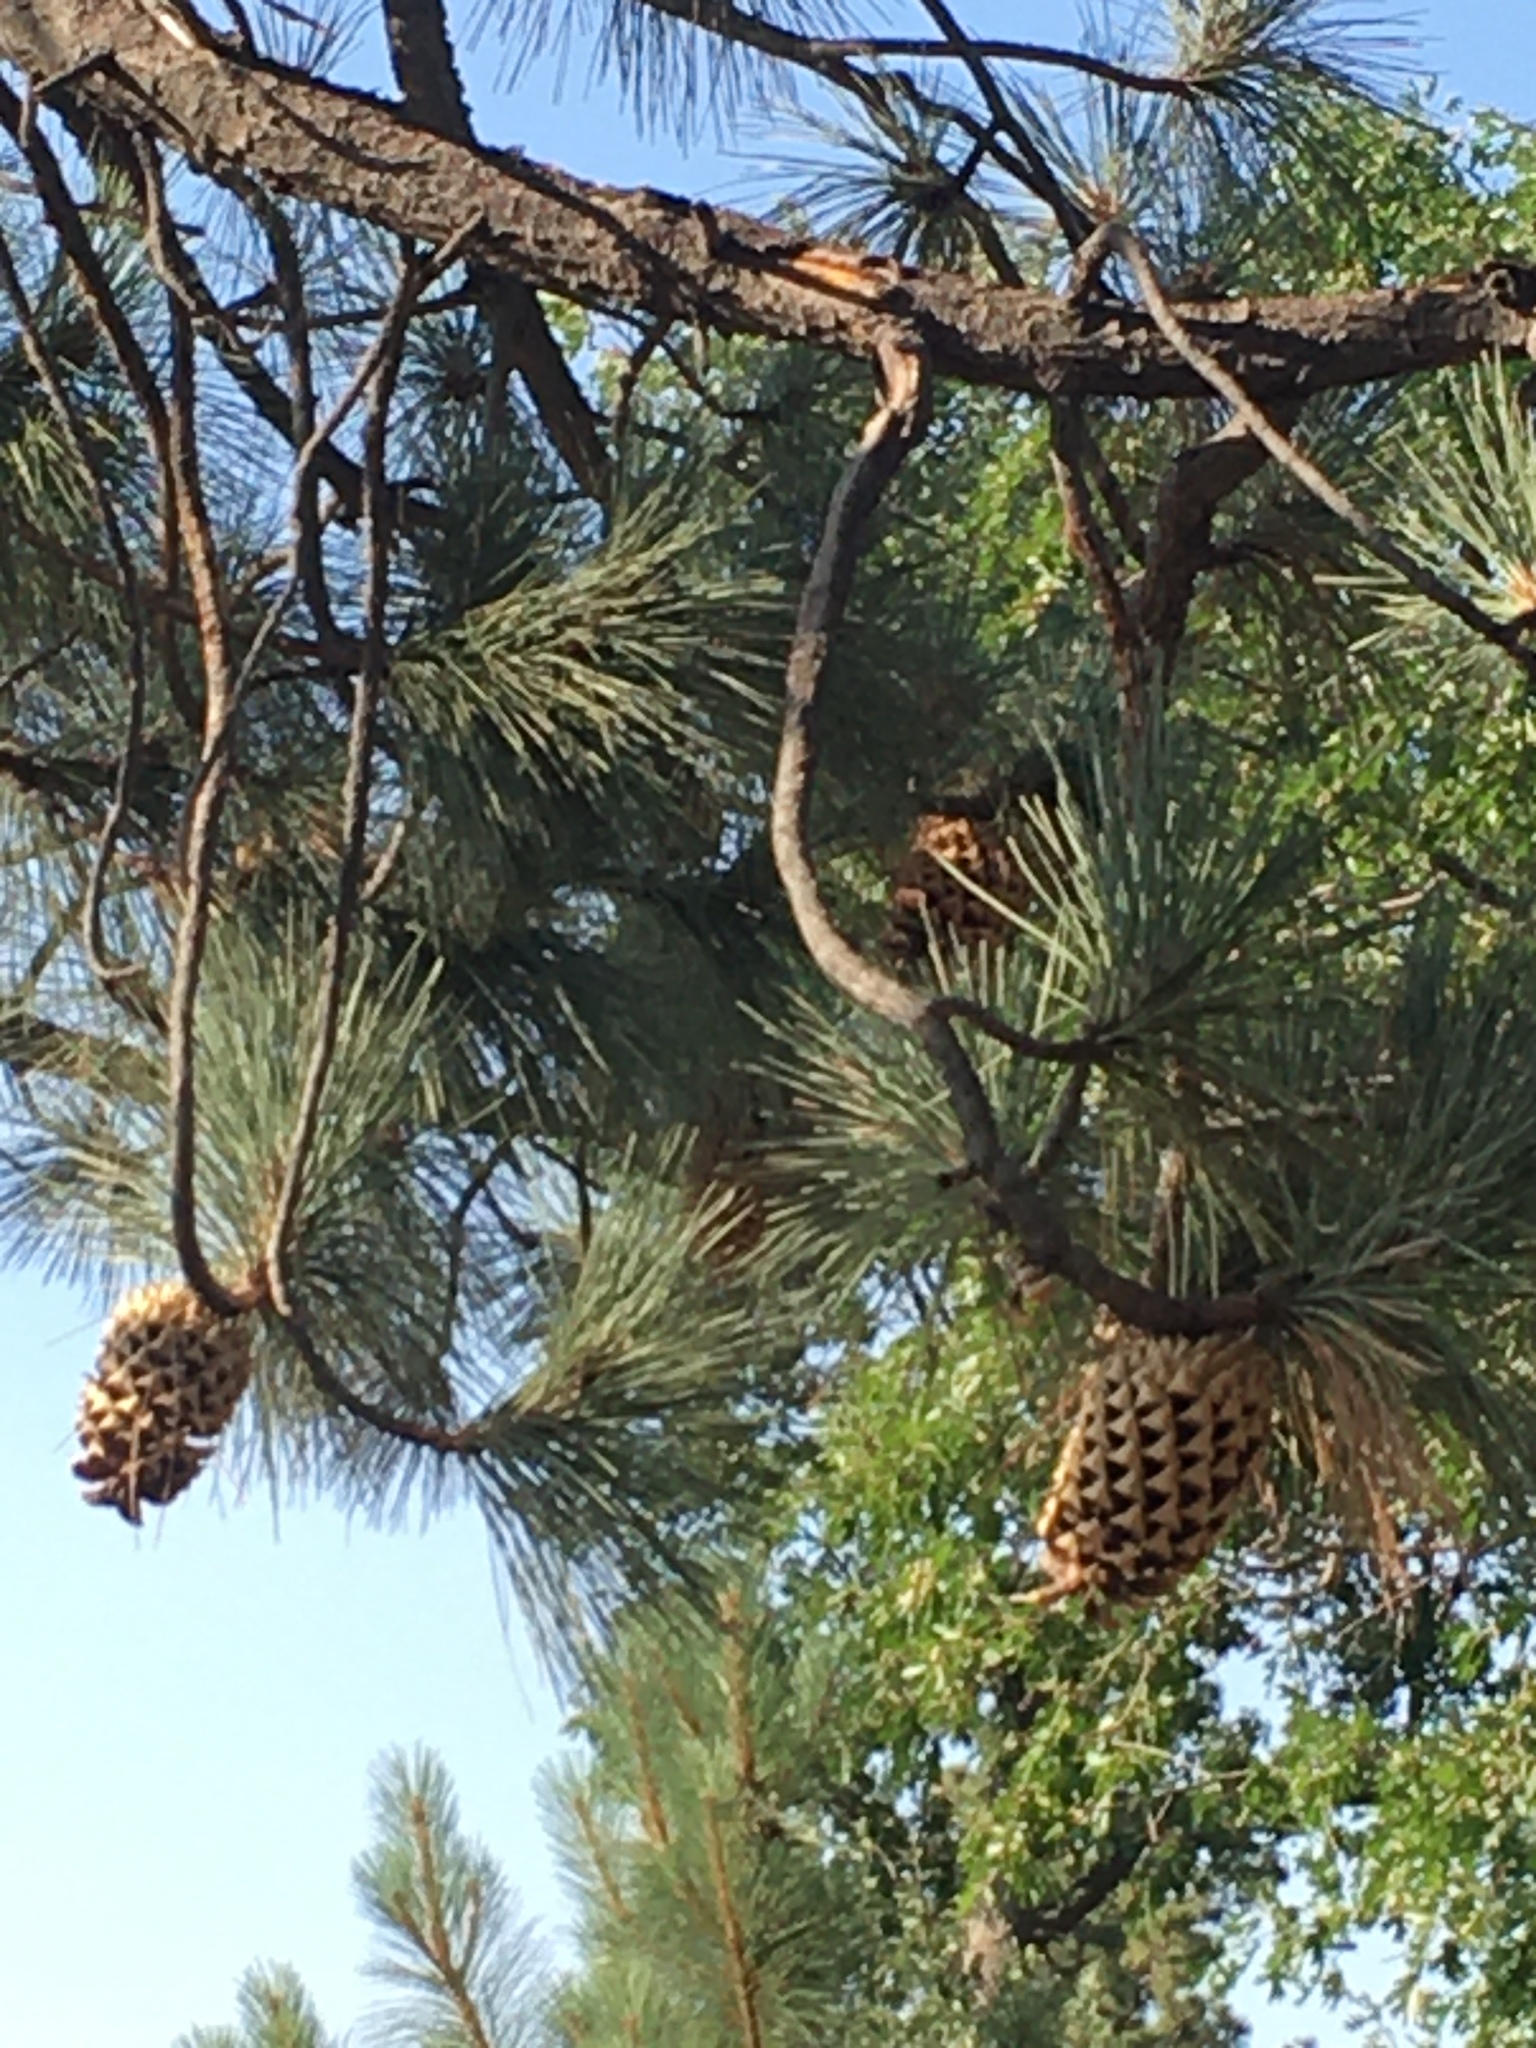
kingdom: Plantae
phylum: Tracheophyta
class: Pinopsida
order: Pinales
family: Pinaceae
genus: Pinus
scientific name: Pinus coulteri
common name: Coulter pine
